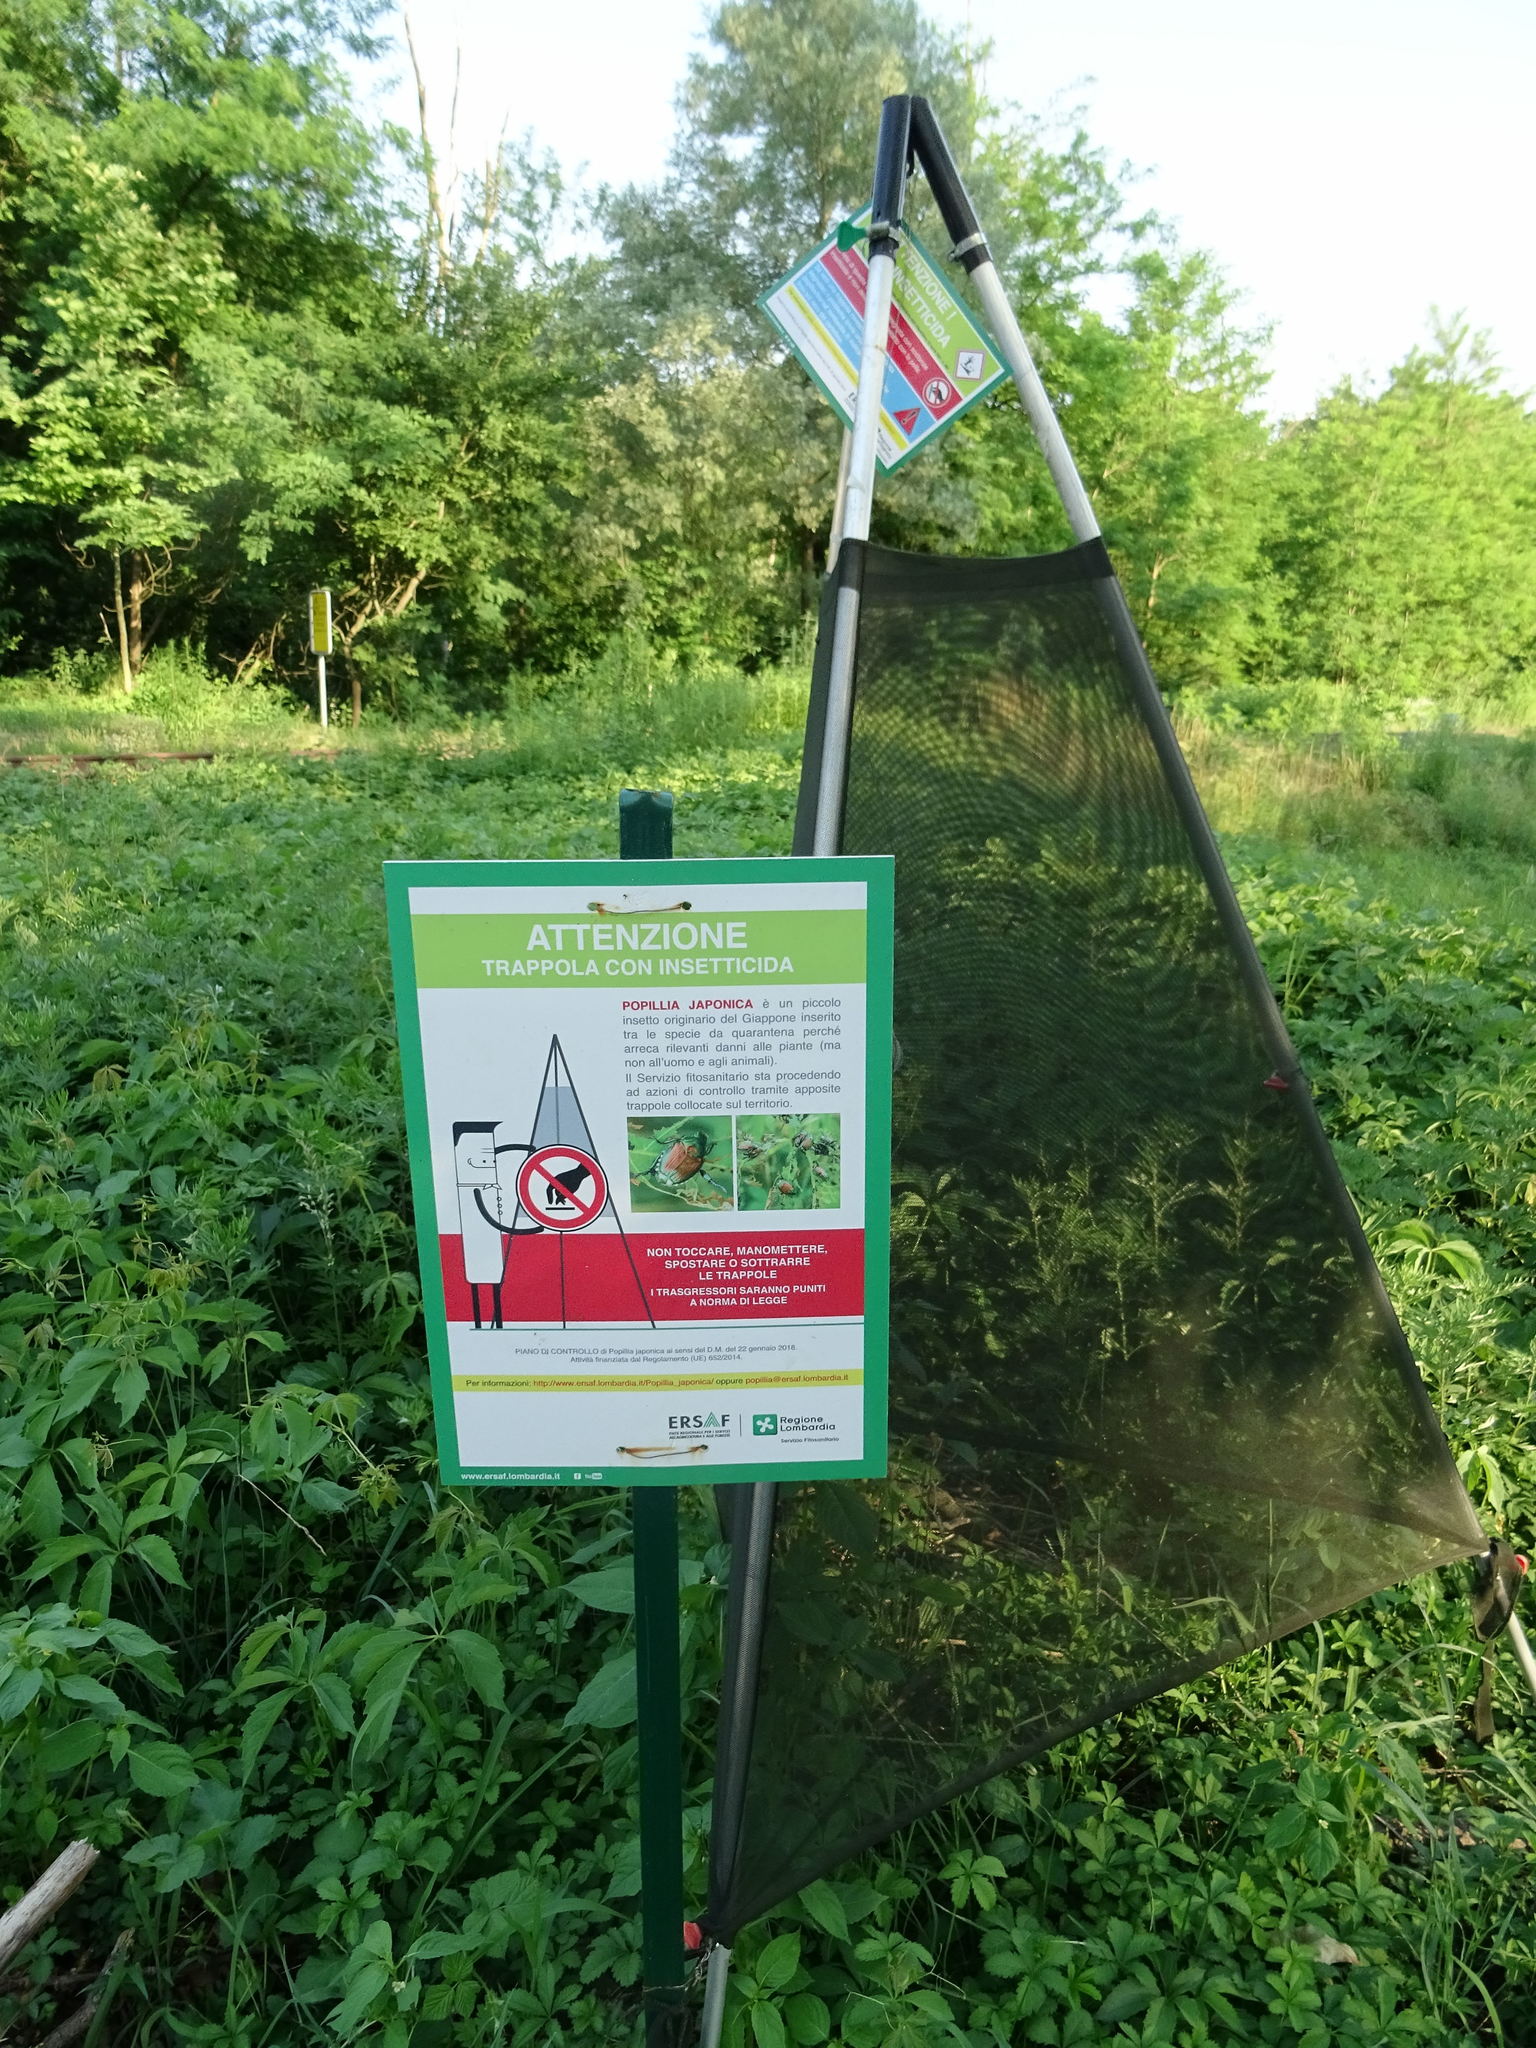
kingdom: Animalia
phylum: Arthropoda
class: Insecta
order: Coleoptera
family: Scarabaeidae
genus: Popillia
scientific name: Popillia japonica
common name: Japanese beetle
